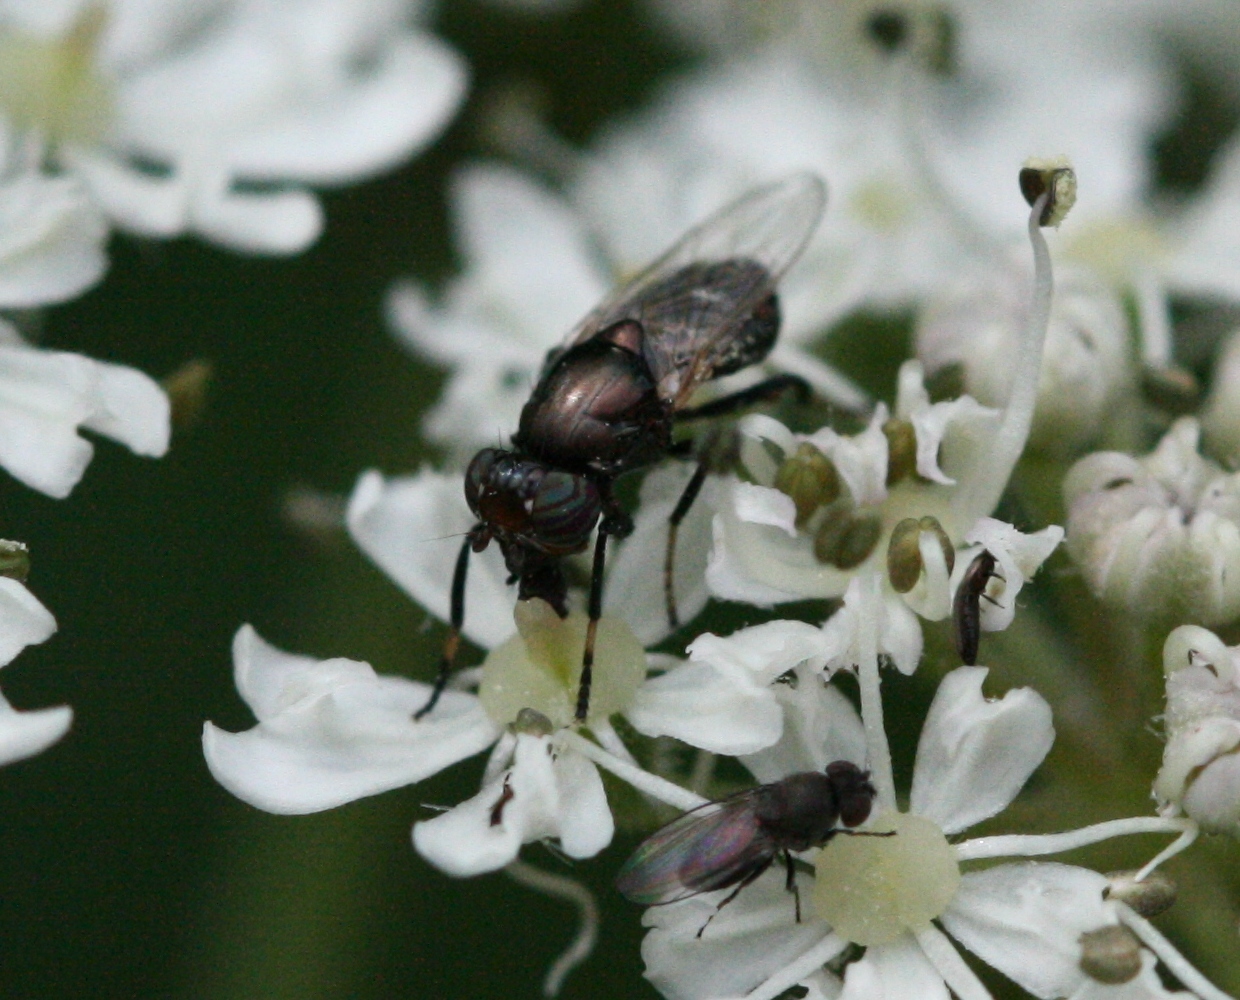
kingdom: Animalia
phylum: Arthropoda
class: Insecta
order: Diptera
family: Ulidiidae
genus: Physiphora
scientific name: Physiphora alceae
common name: Picture-winged fly
